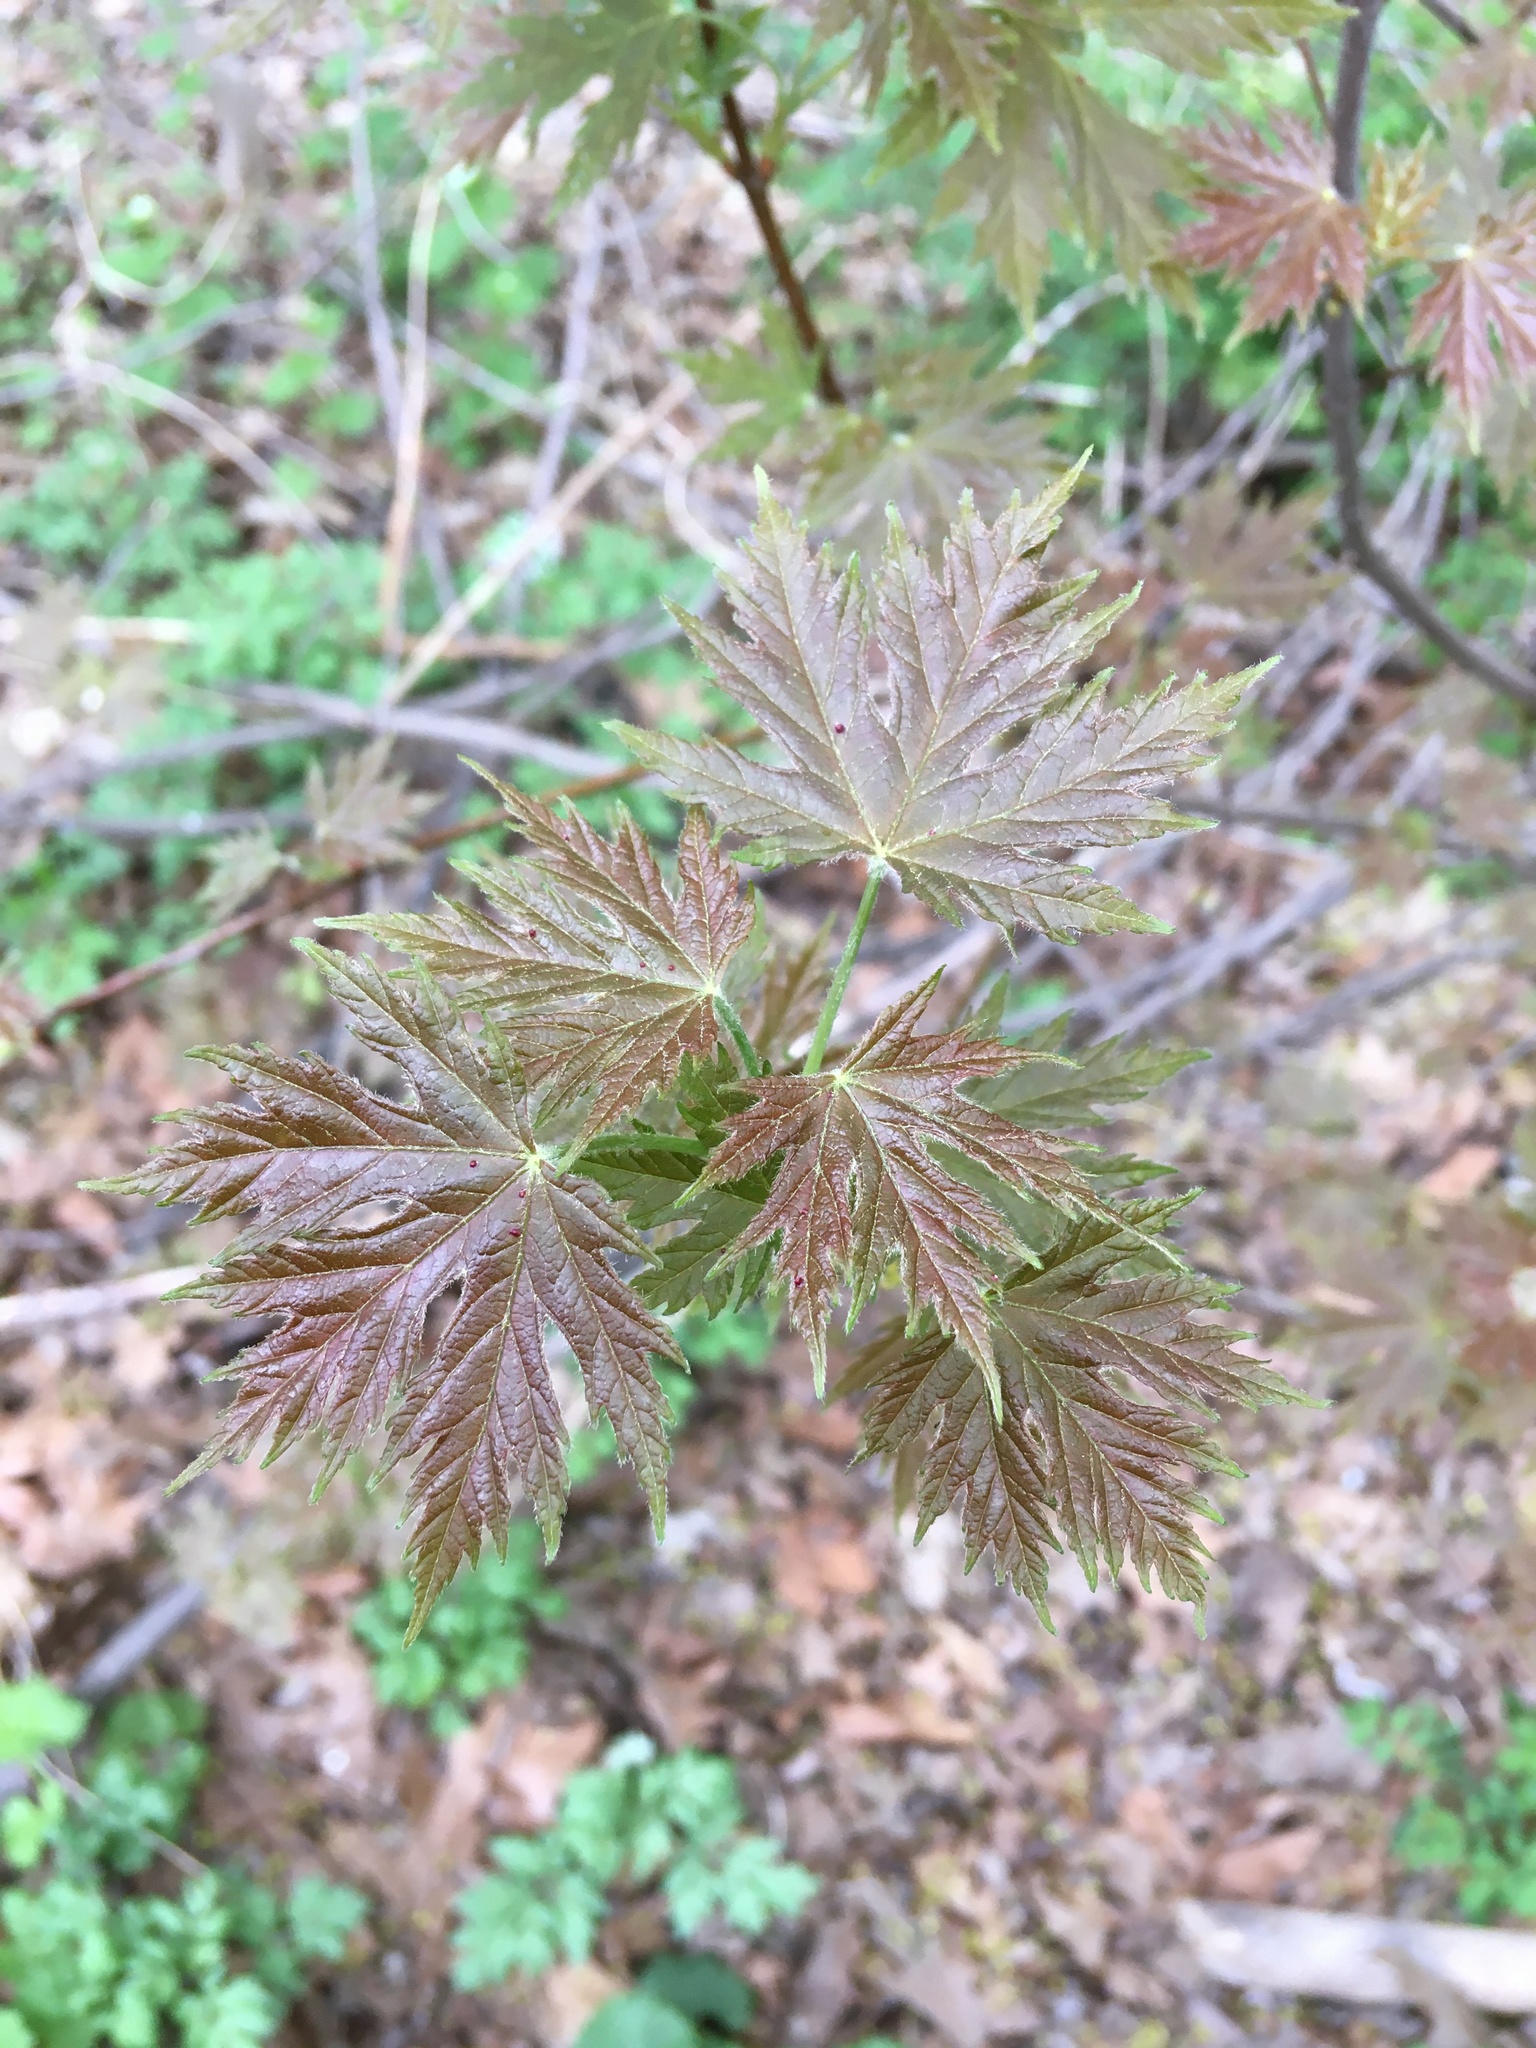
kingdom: Plantae
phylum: Tracheophyta
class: Magnoliopsida
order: Sapindales
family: Sapindaceae
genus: Acer
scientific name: Acer saccharinum
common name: Silver maple
